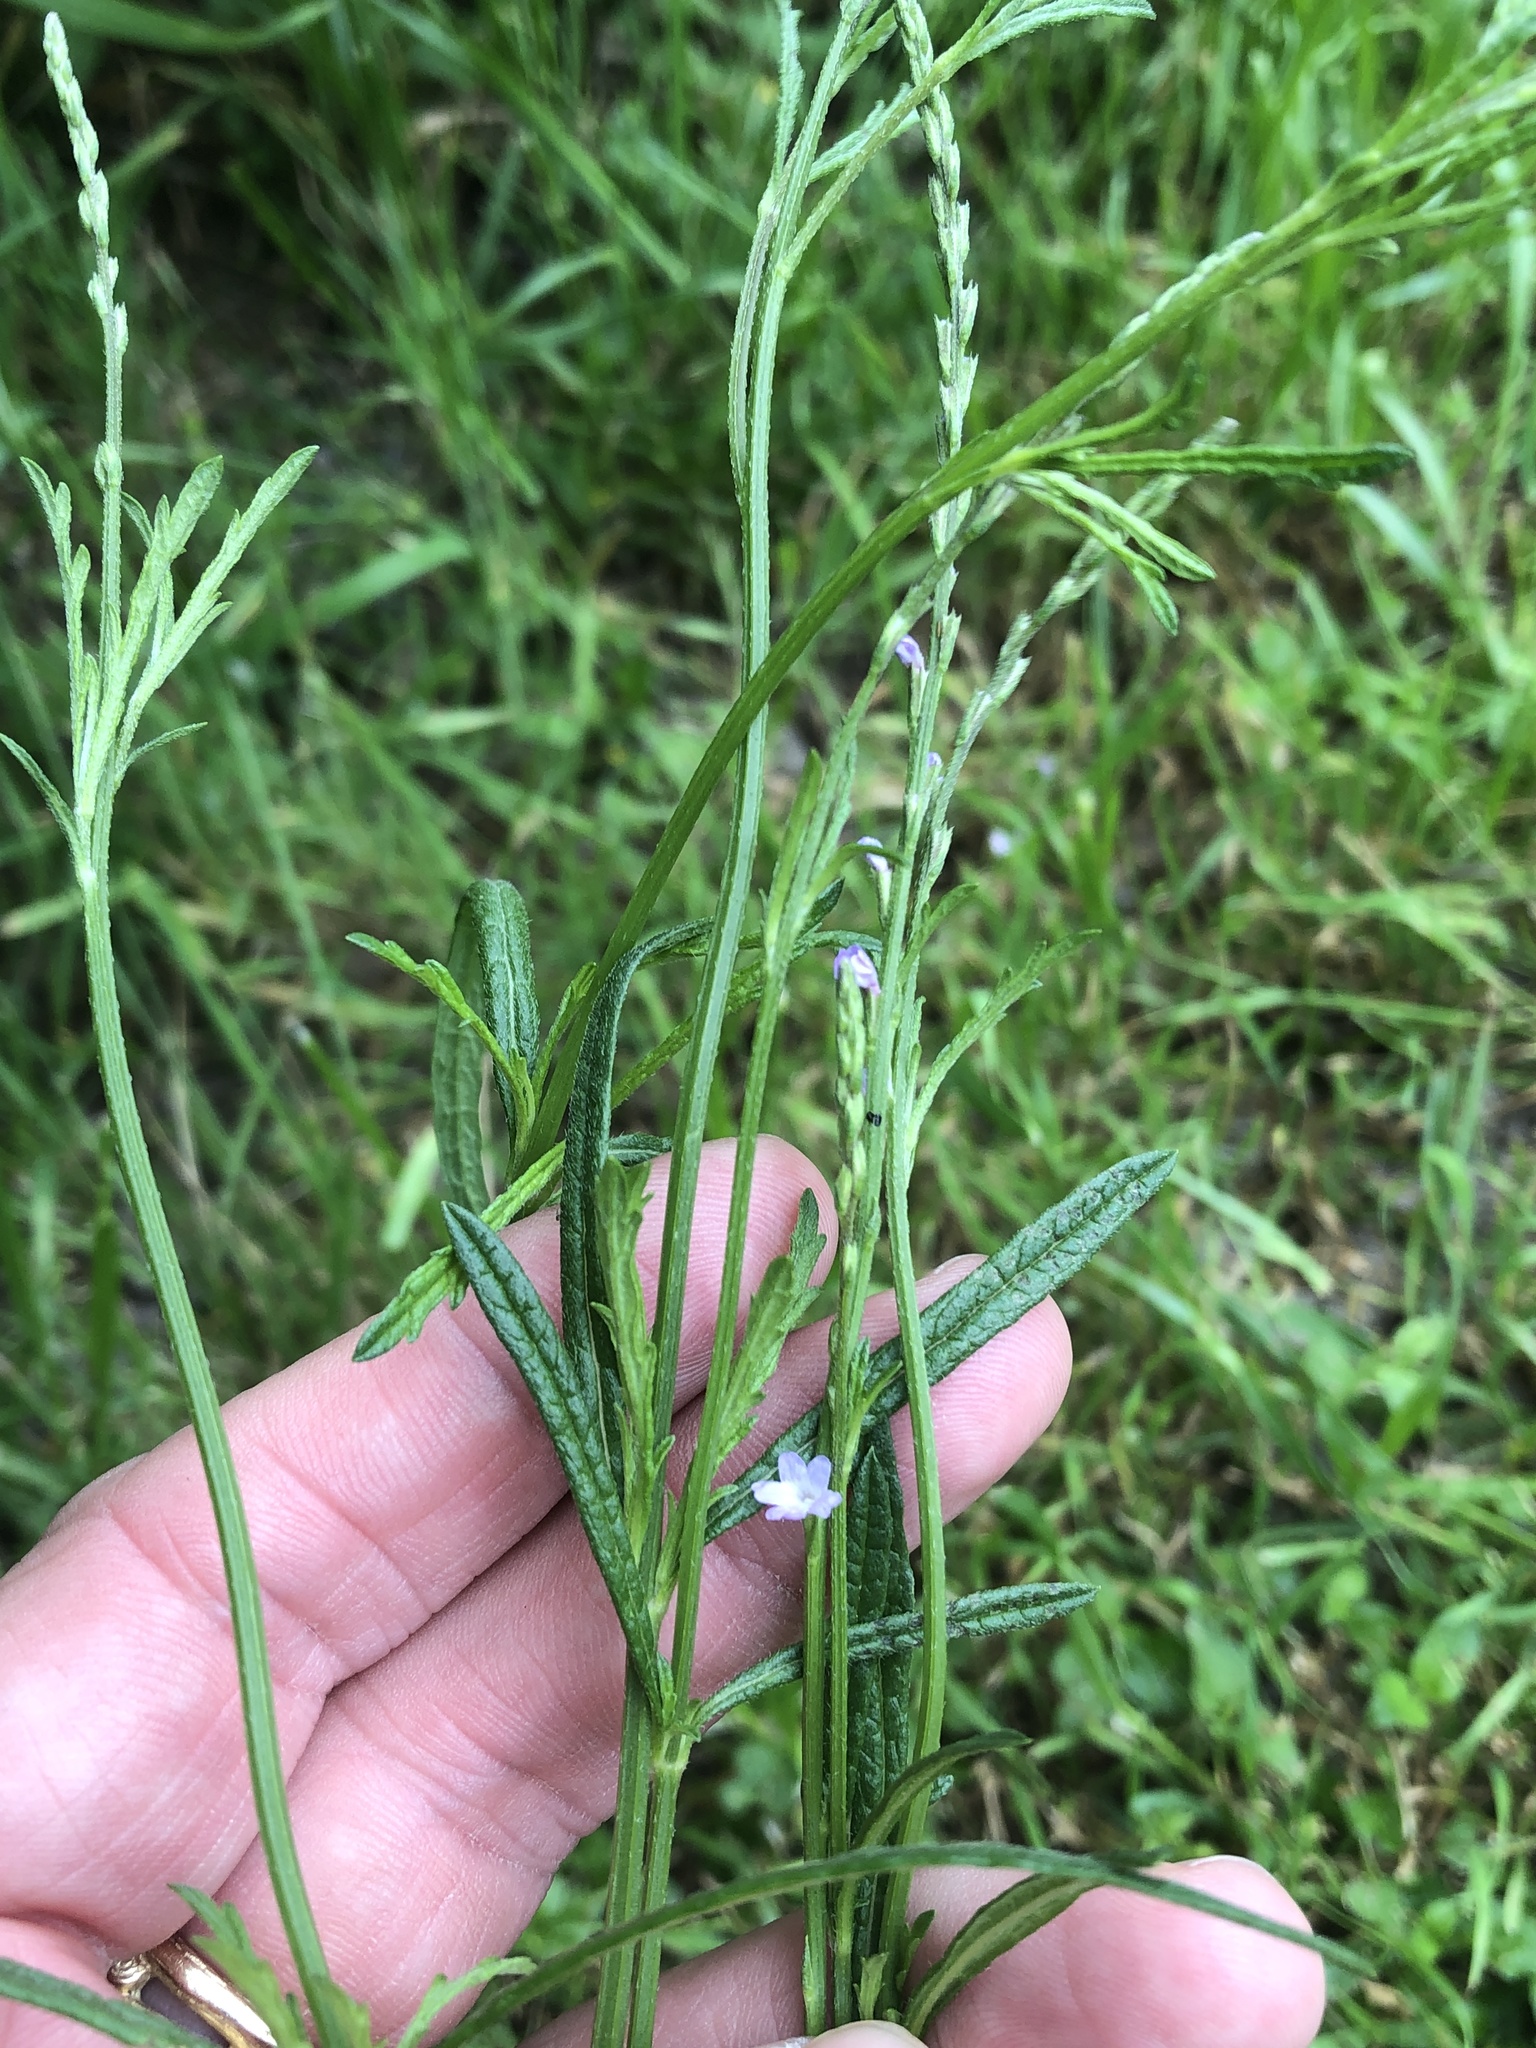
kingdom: Plantae
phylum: Tracheophyta
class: Magnoliopsida
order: Lamiales
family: Verbenaceae
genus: Verbena
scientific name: Verbena halei
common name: Texas vervain
